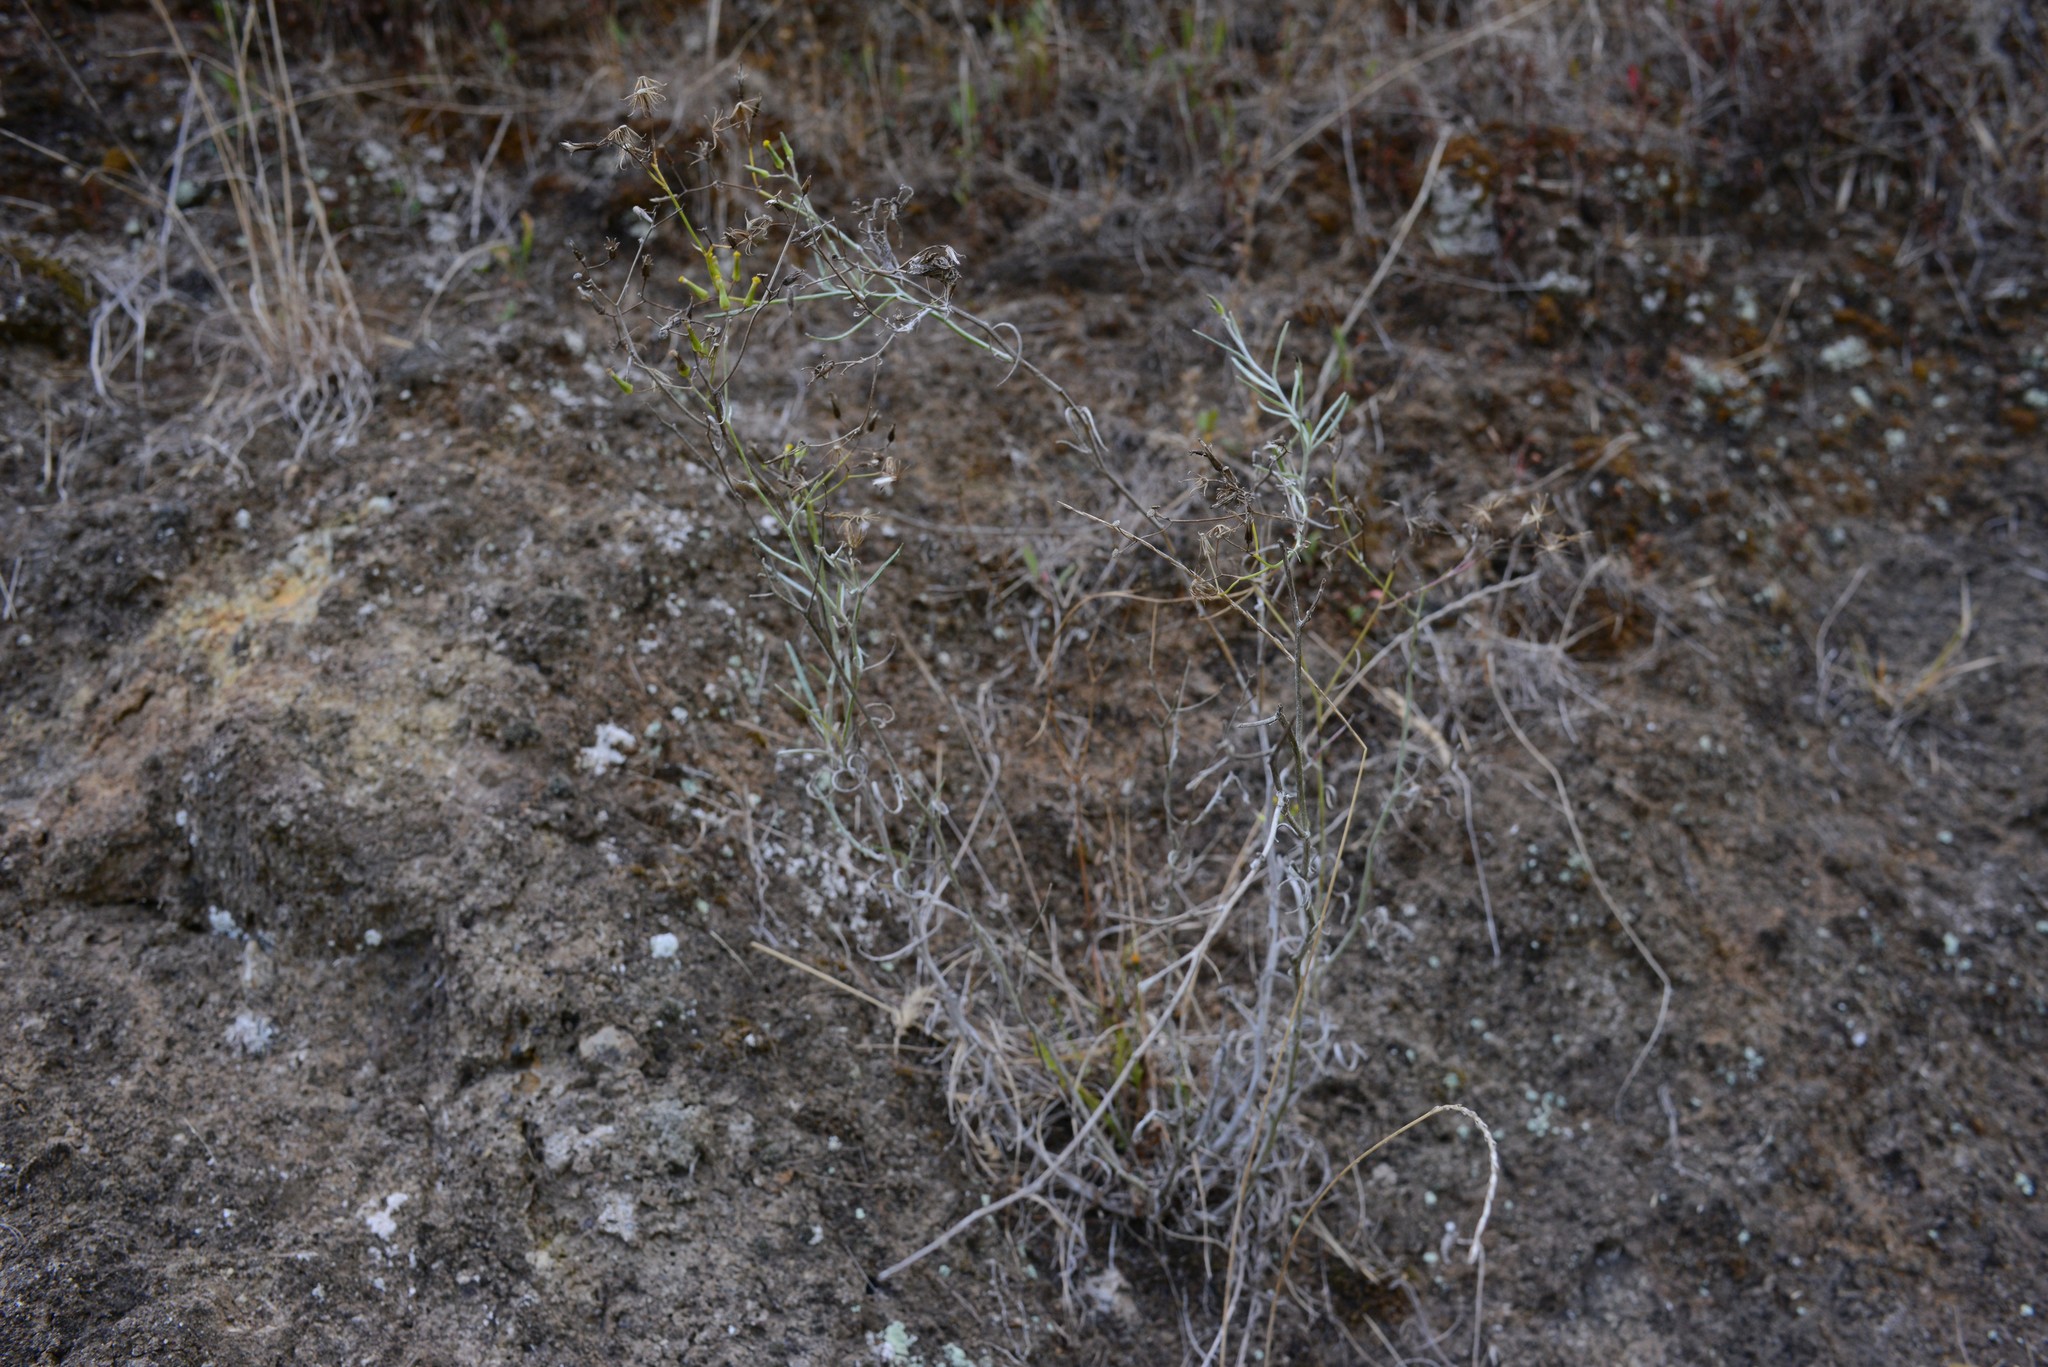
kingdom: Plantae
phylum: Tracheophyta
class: Magnoliopsida
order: Asterales
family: Asteraceae
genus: Senecio
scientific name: Senecio quadridentatus
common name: Cotton fireweed
